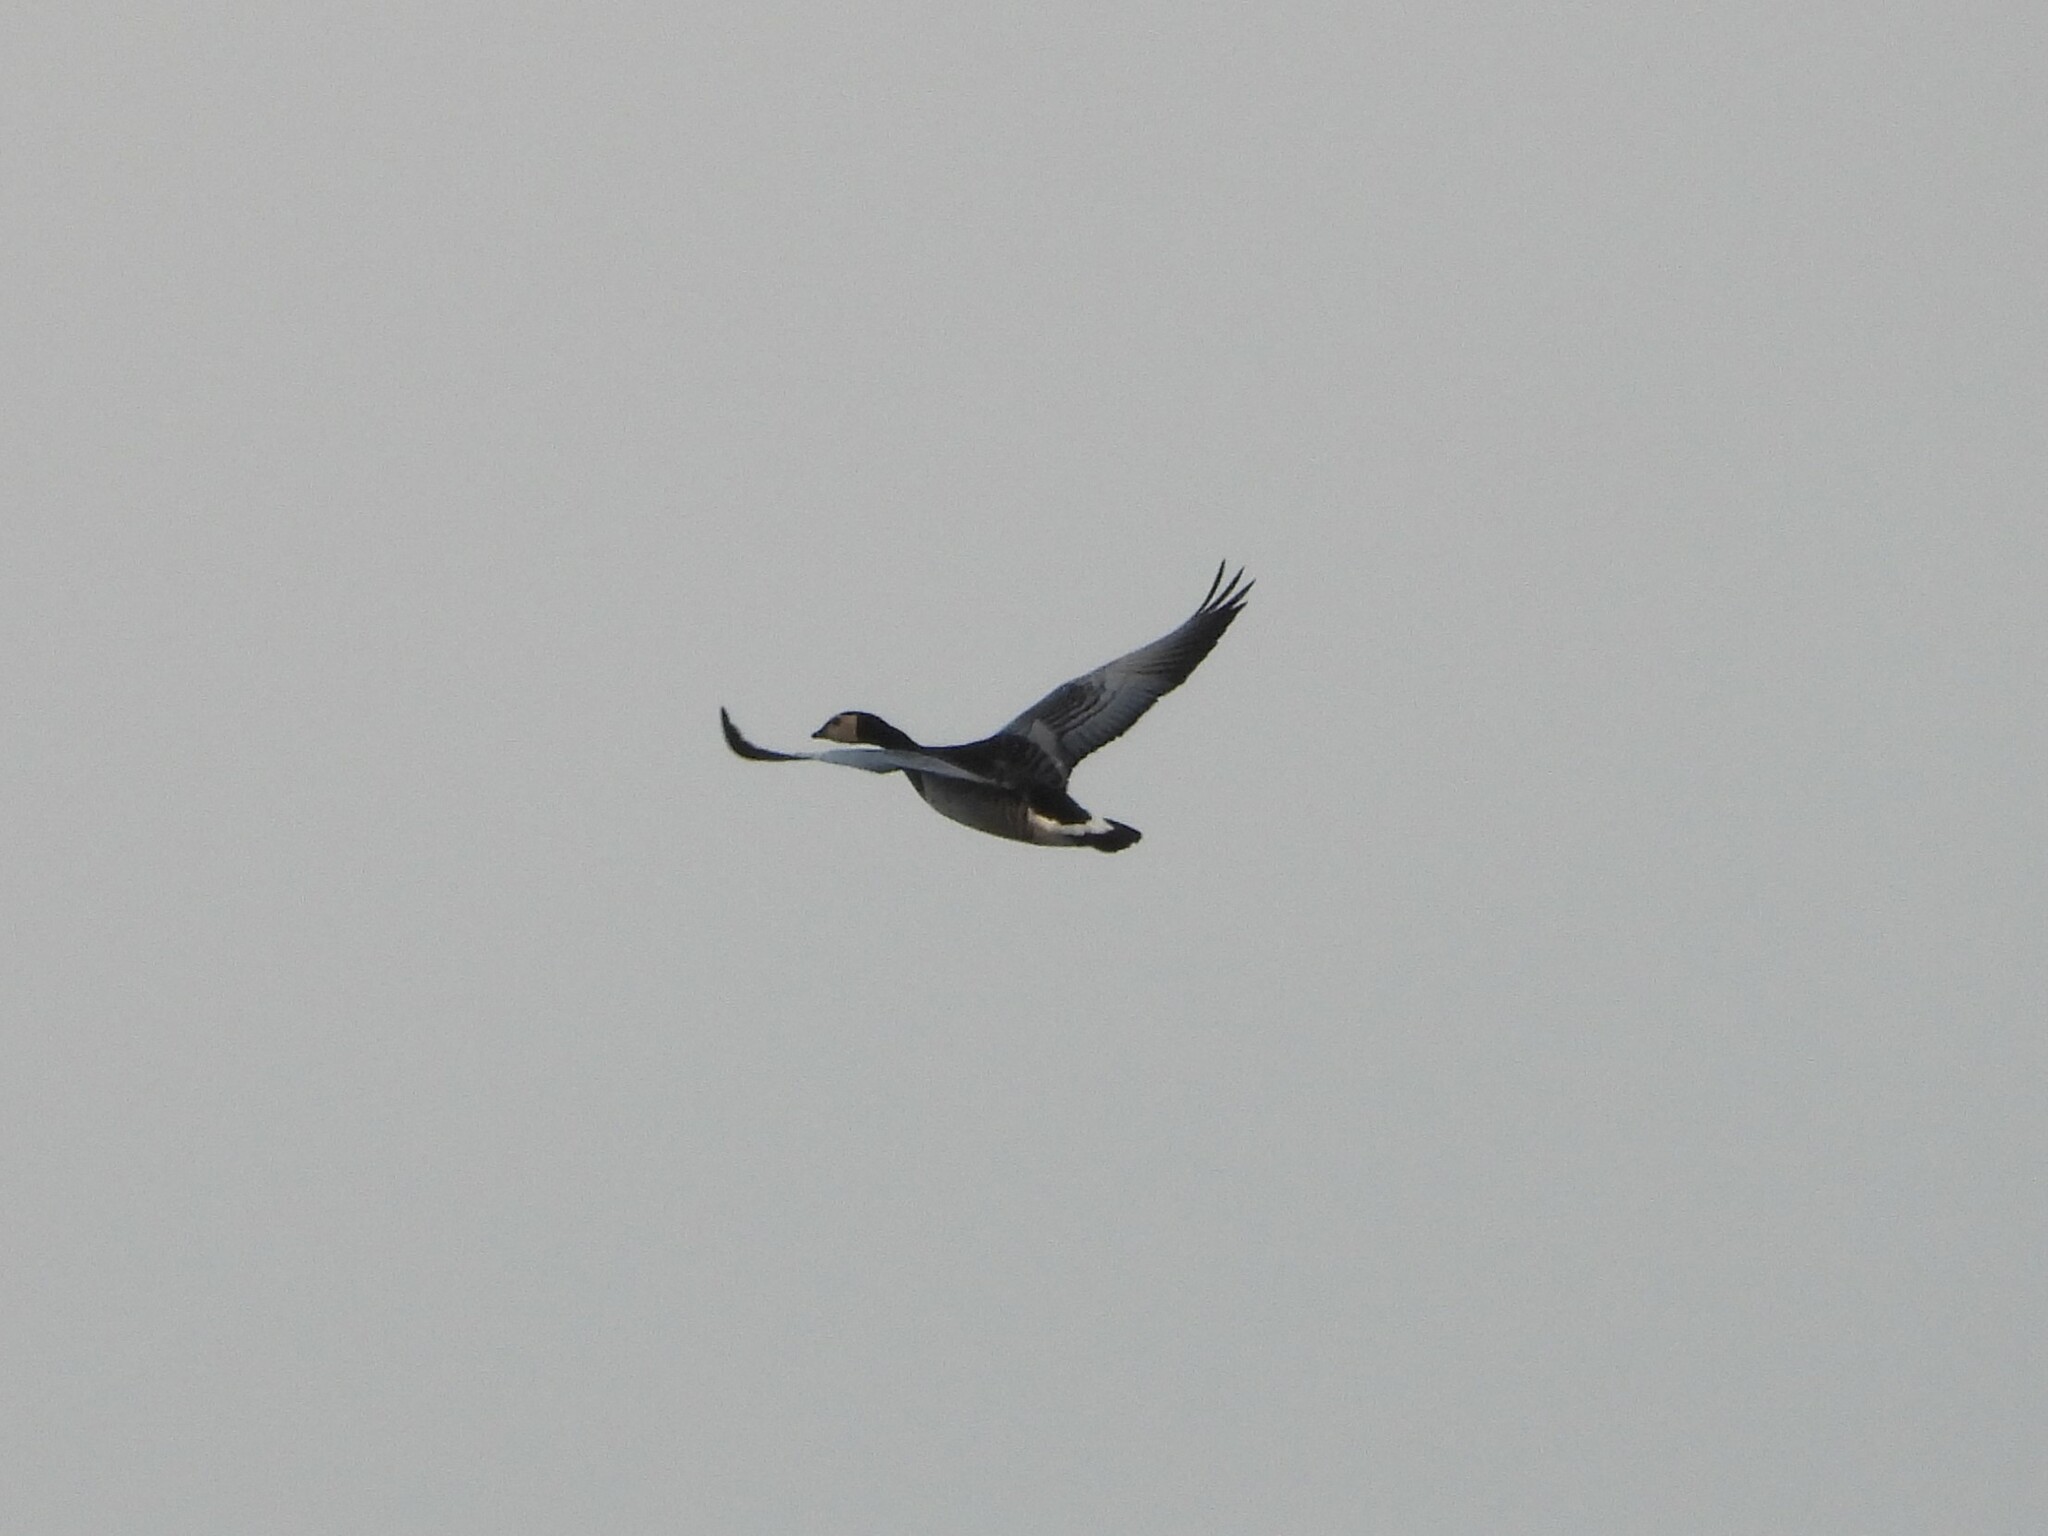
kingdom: Animalia
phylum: Chordata
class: Aves
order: Anseriformes
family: Anatidae
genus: Branta
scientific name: Branta leucopsis
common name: Barnacle goose
